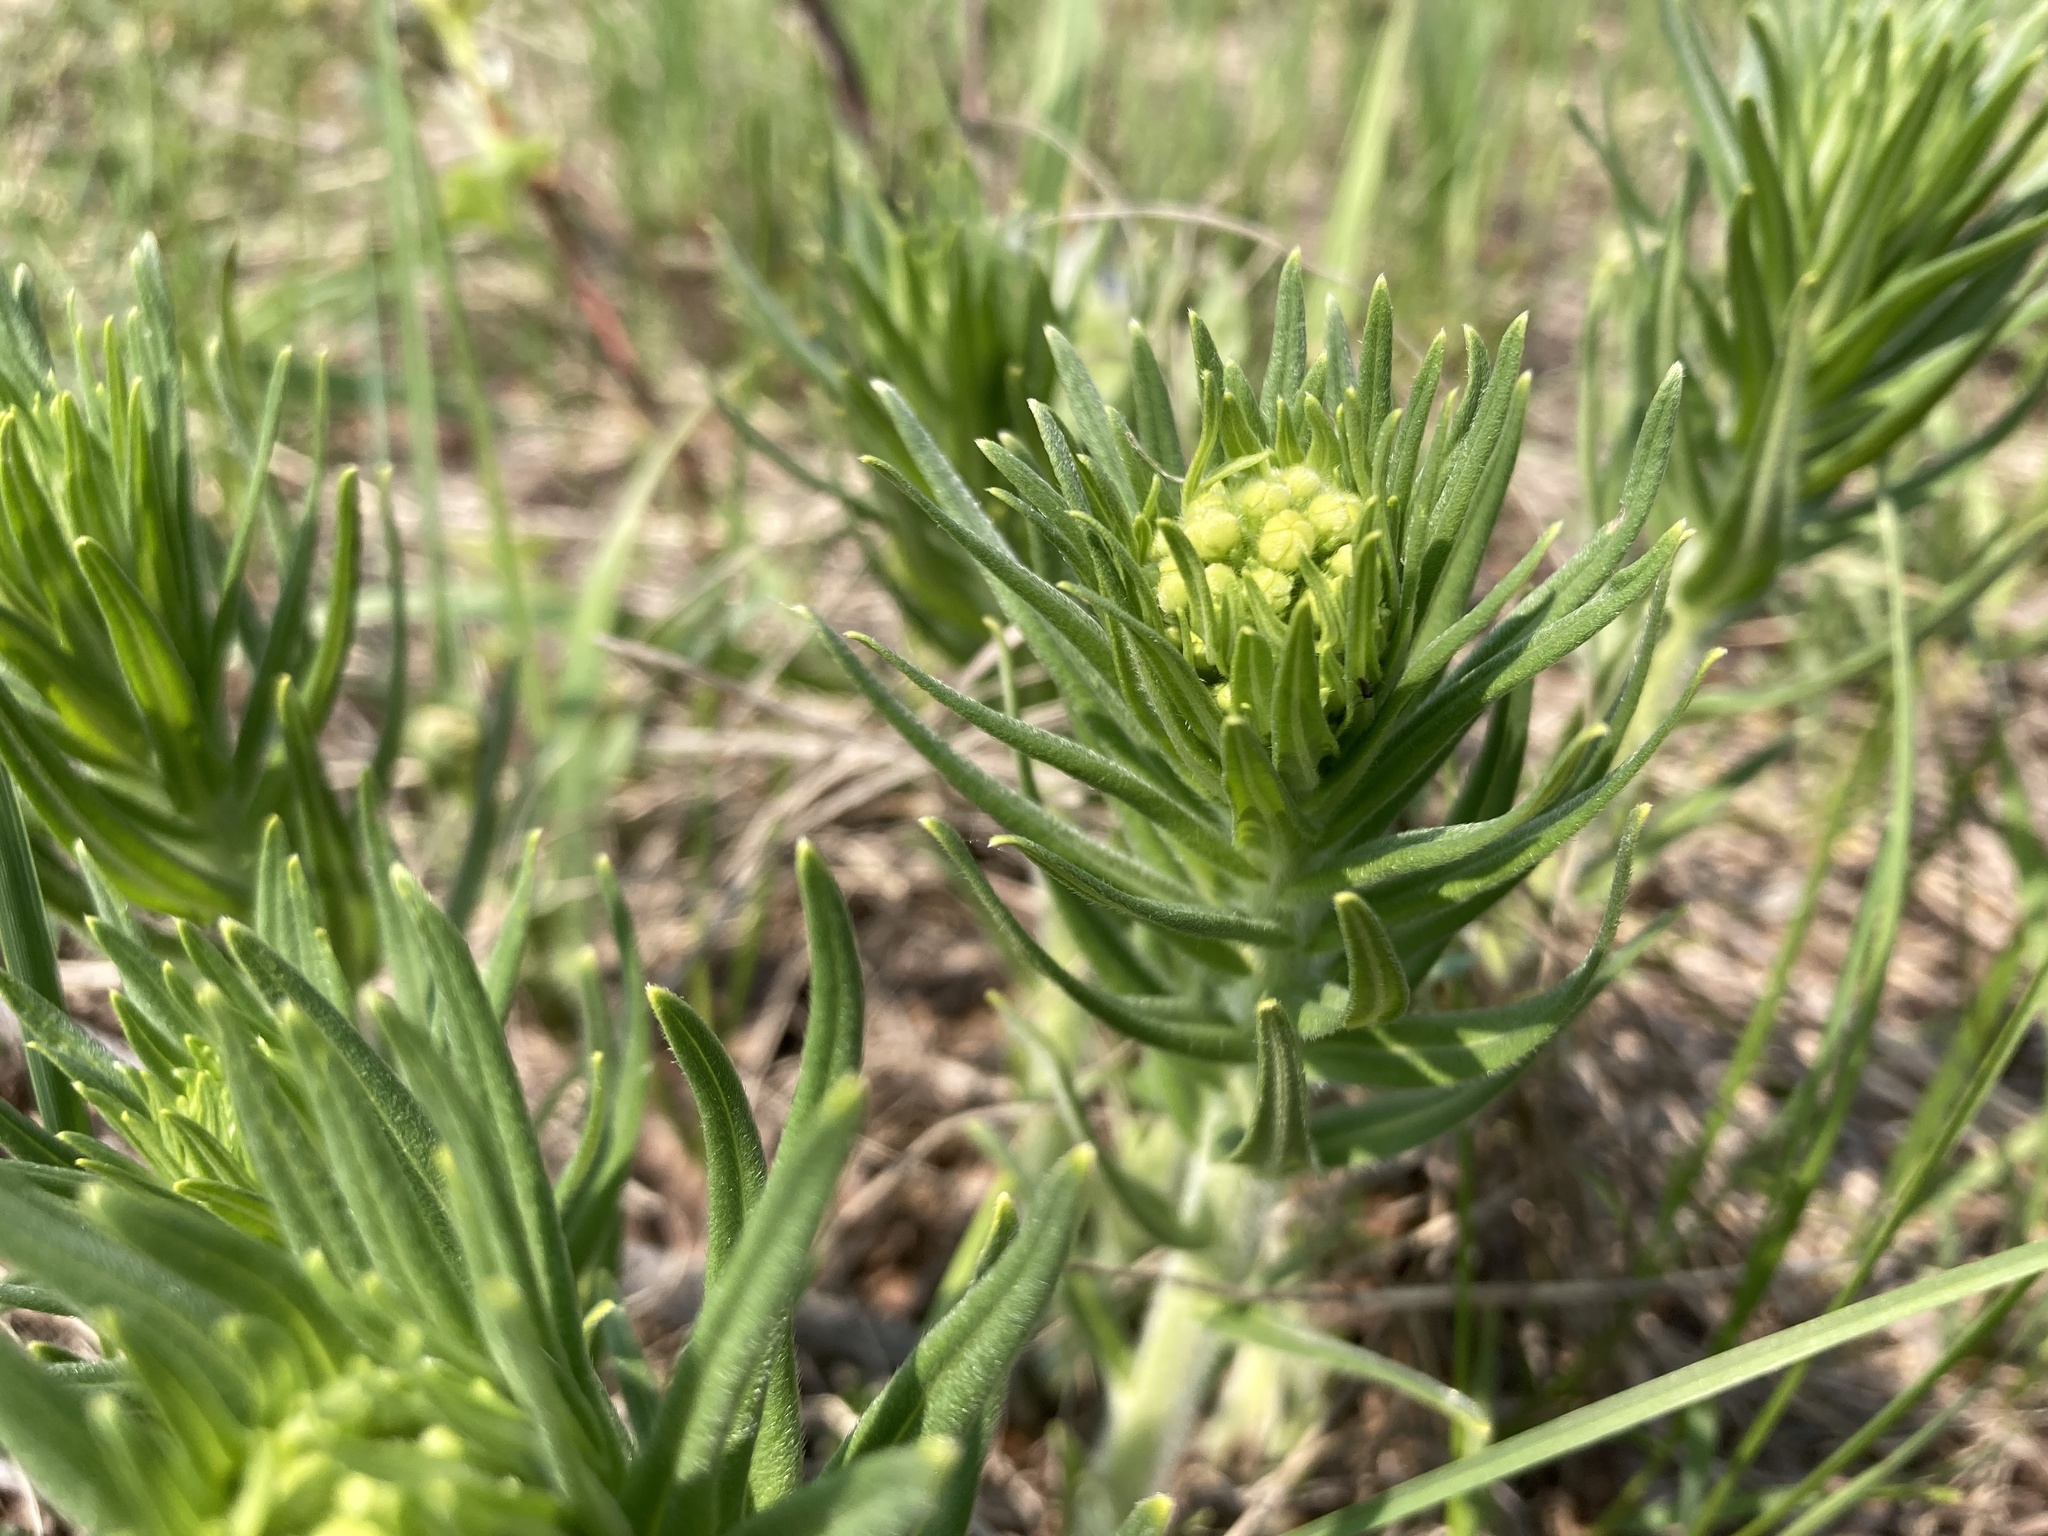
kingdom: Plantae
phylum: Tracheophyta
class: Magnoliopsida
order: Boraginales
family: Boraginaceae
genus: Lithospermum
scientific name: Lithospermum ruderale
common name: Western gromwell
